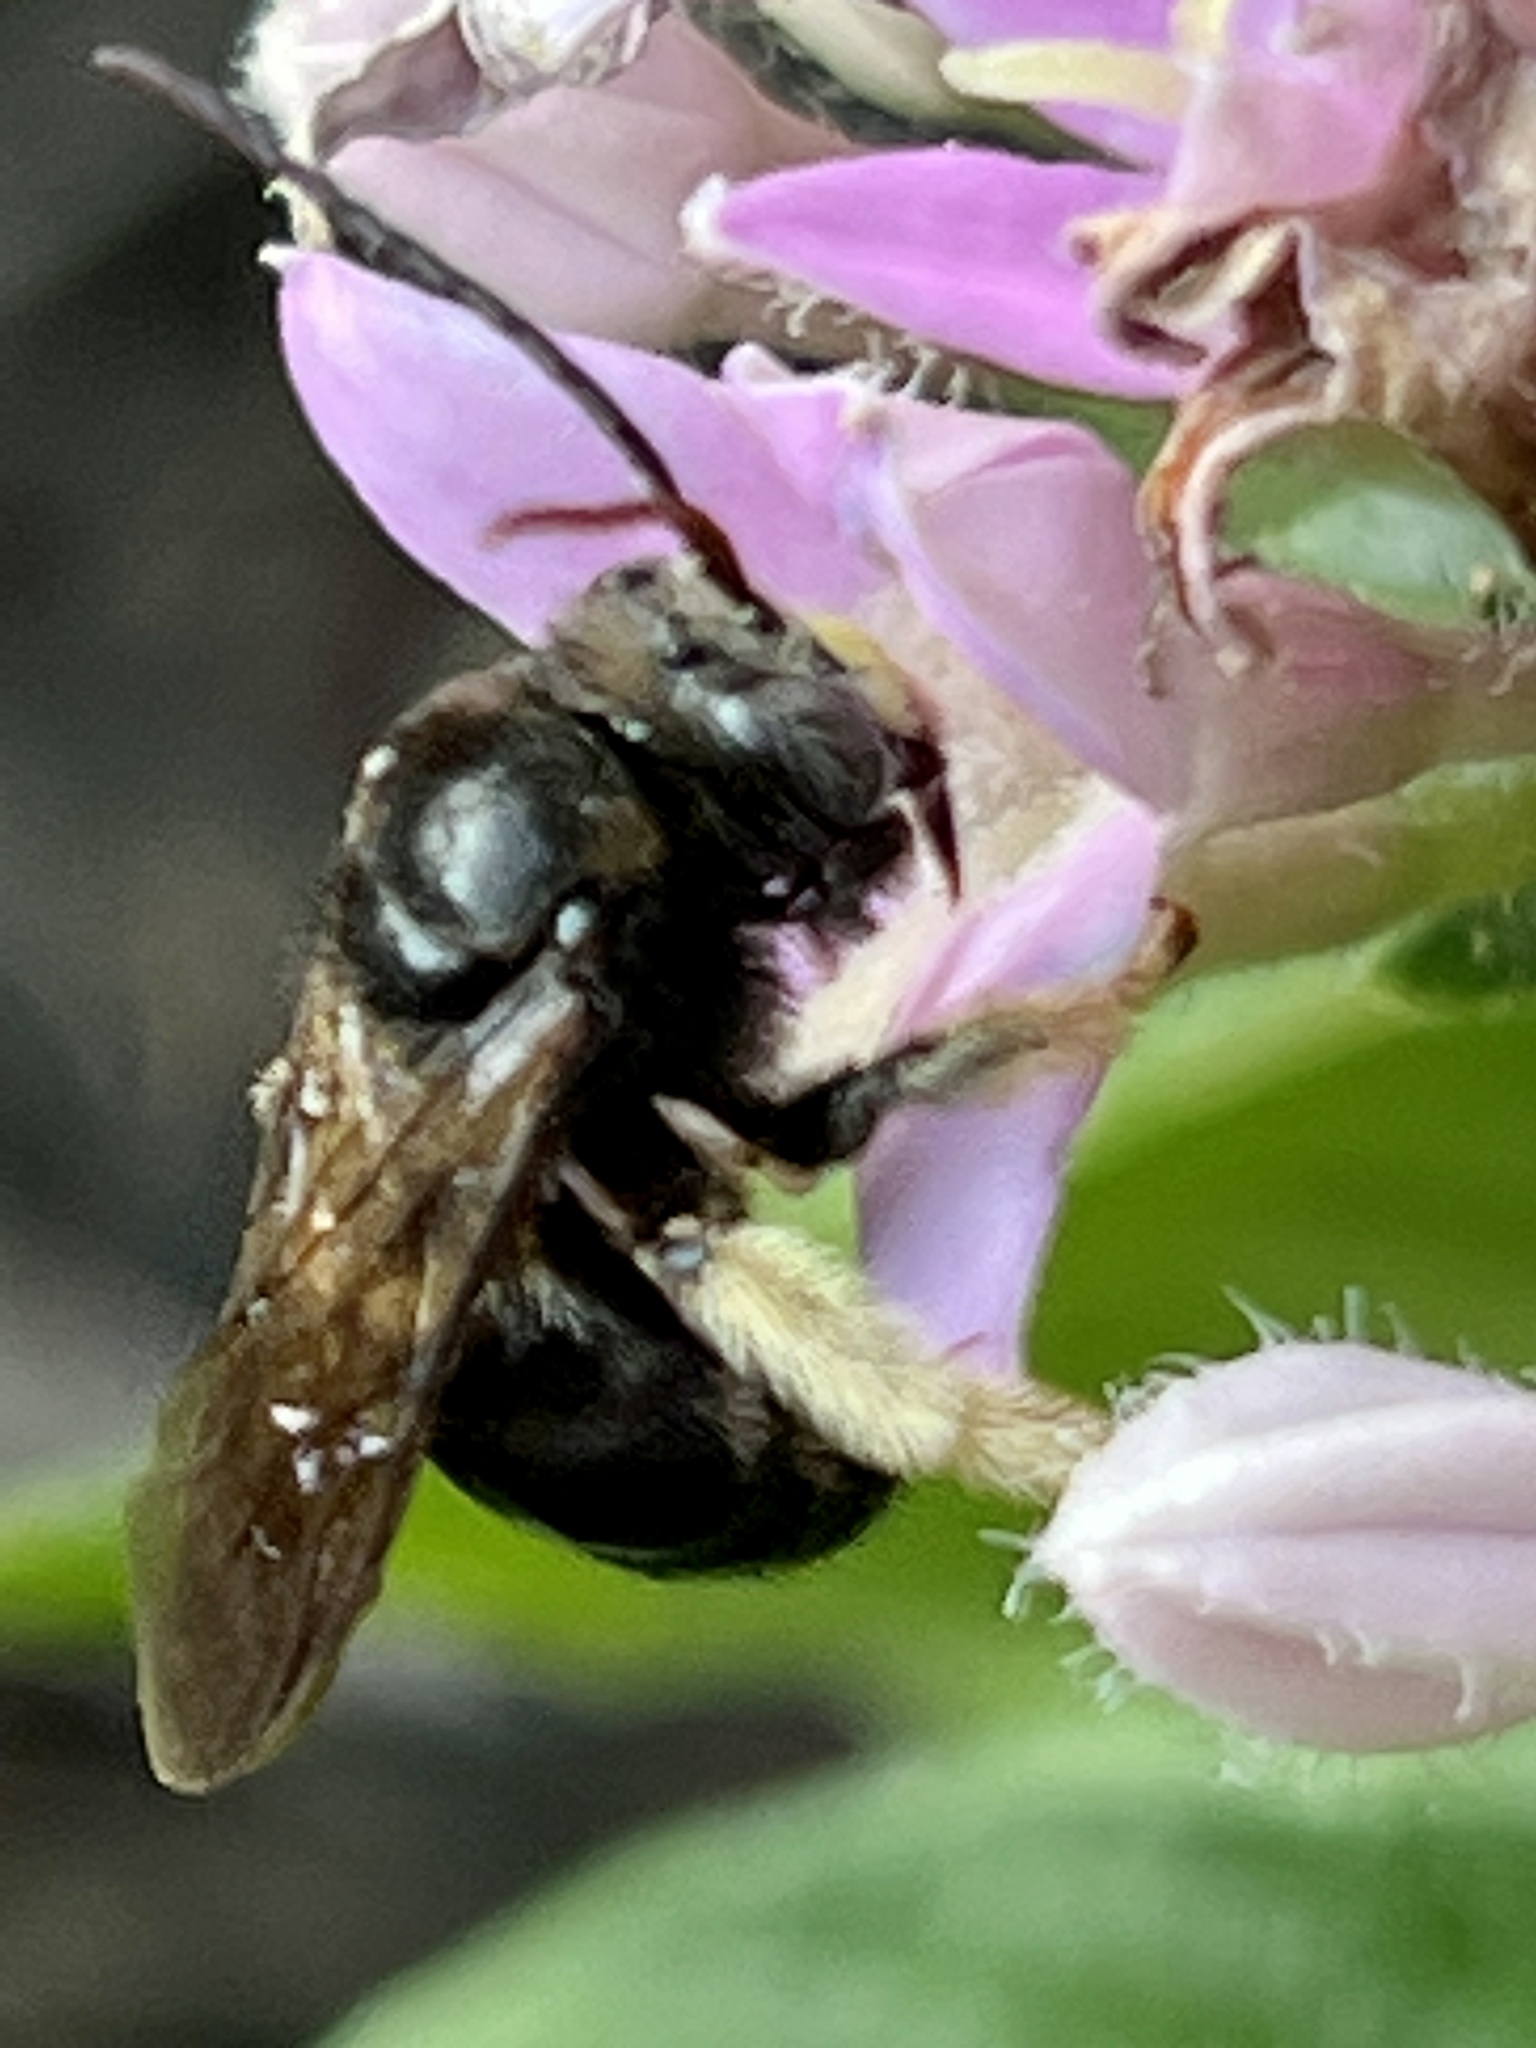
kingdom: Animalia
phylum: Arthropoda
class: Insecta
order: Hymenoptera
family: Apidae
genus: Melissodes
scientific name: Melissodes bimaculatus
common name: Two-spotted long-horned bee
